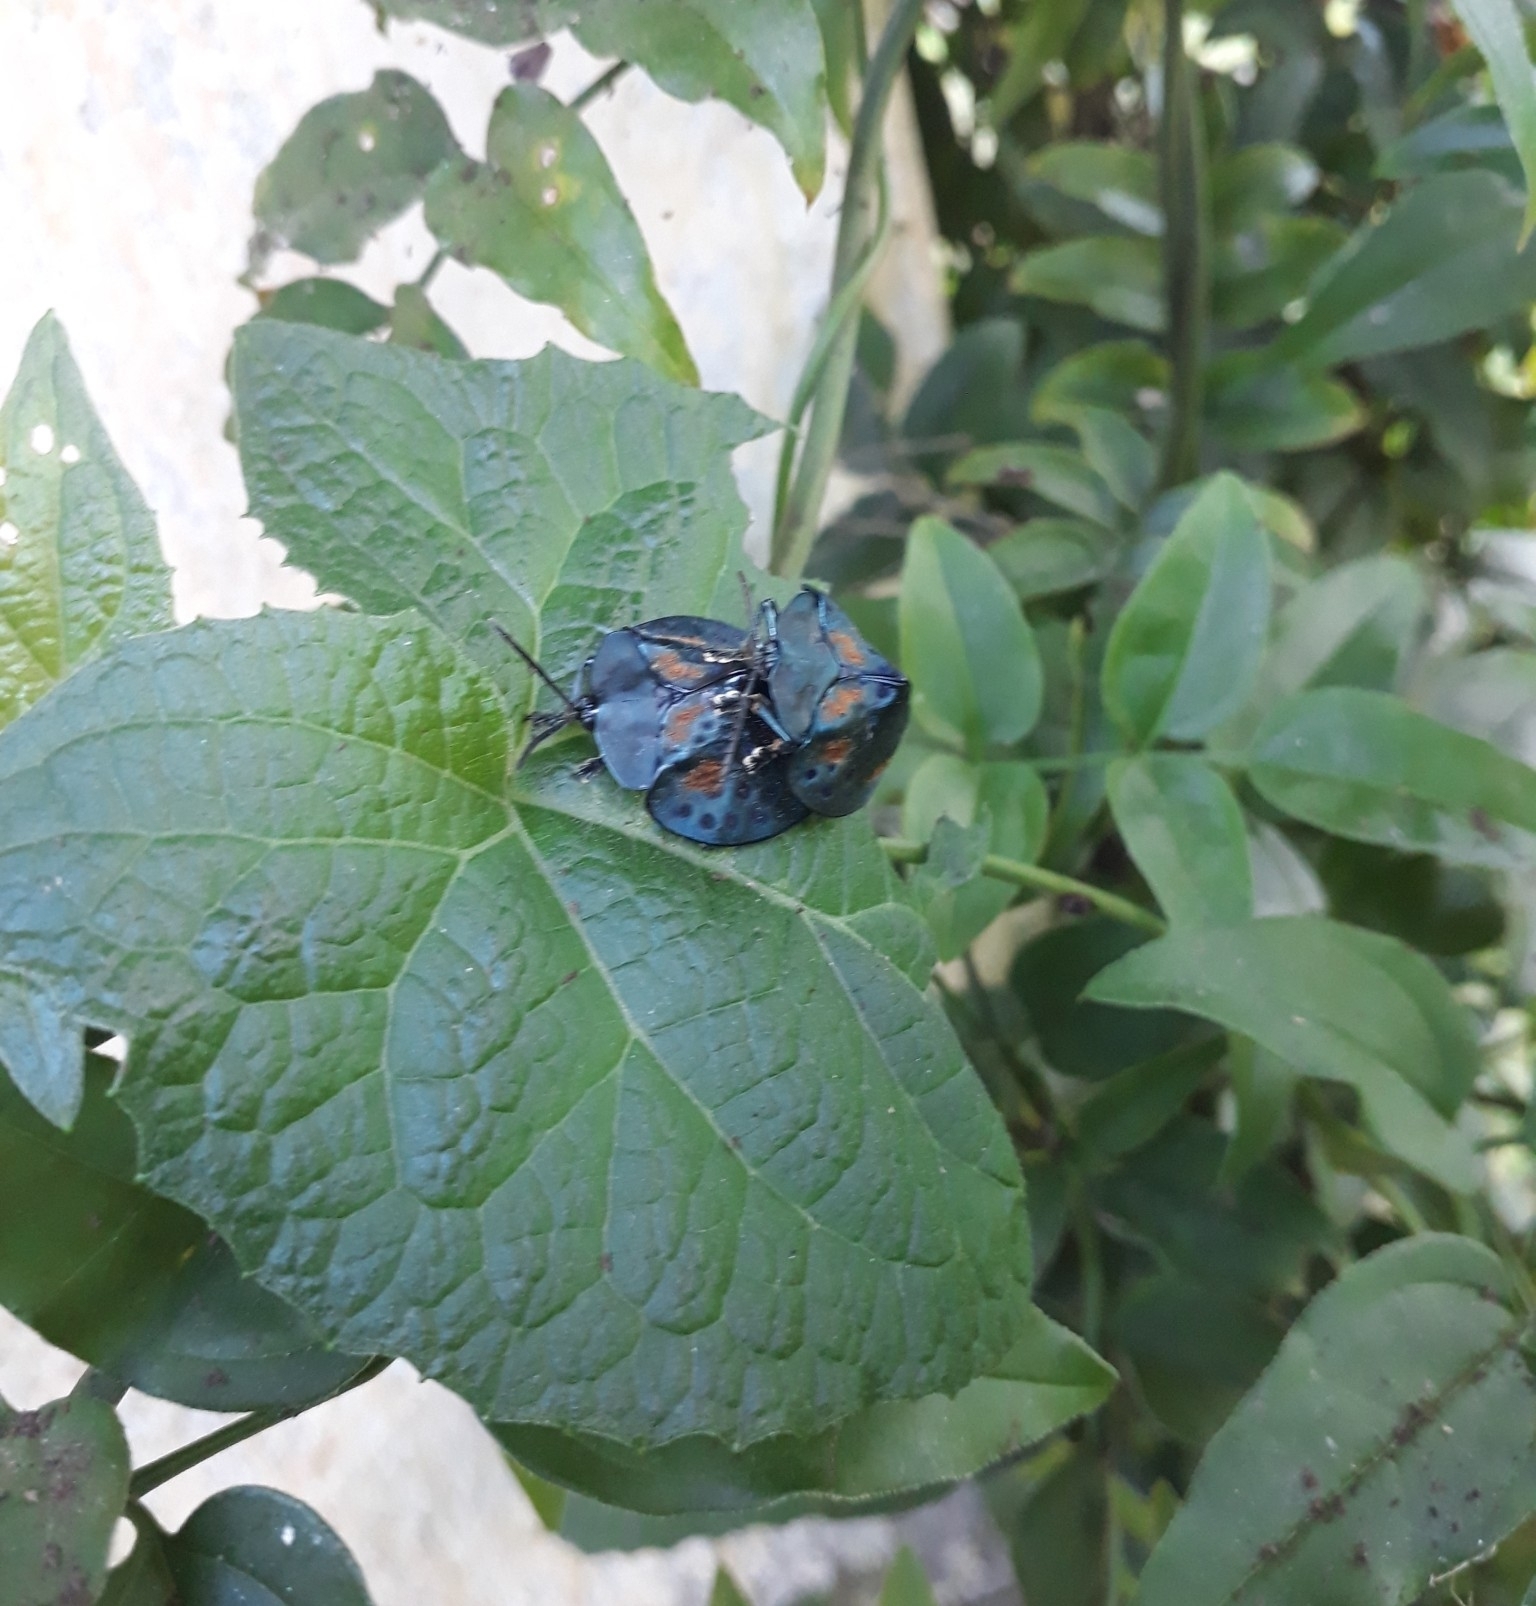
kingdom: Animalia
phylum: Arthropoda
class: Insecta
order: Coleoptera
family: Chrysomelidae
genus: Stolas
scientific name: Stolas conspersa
